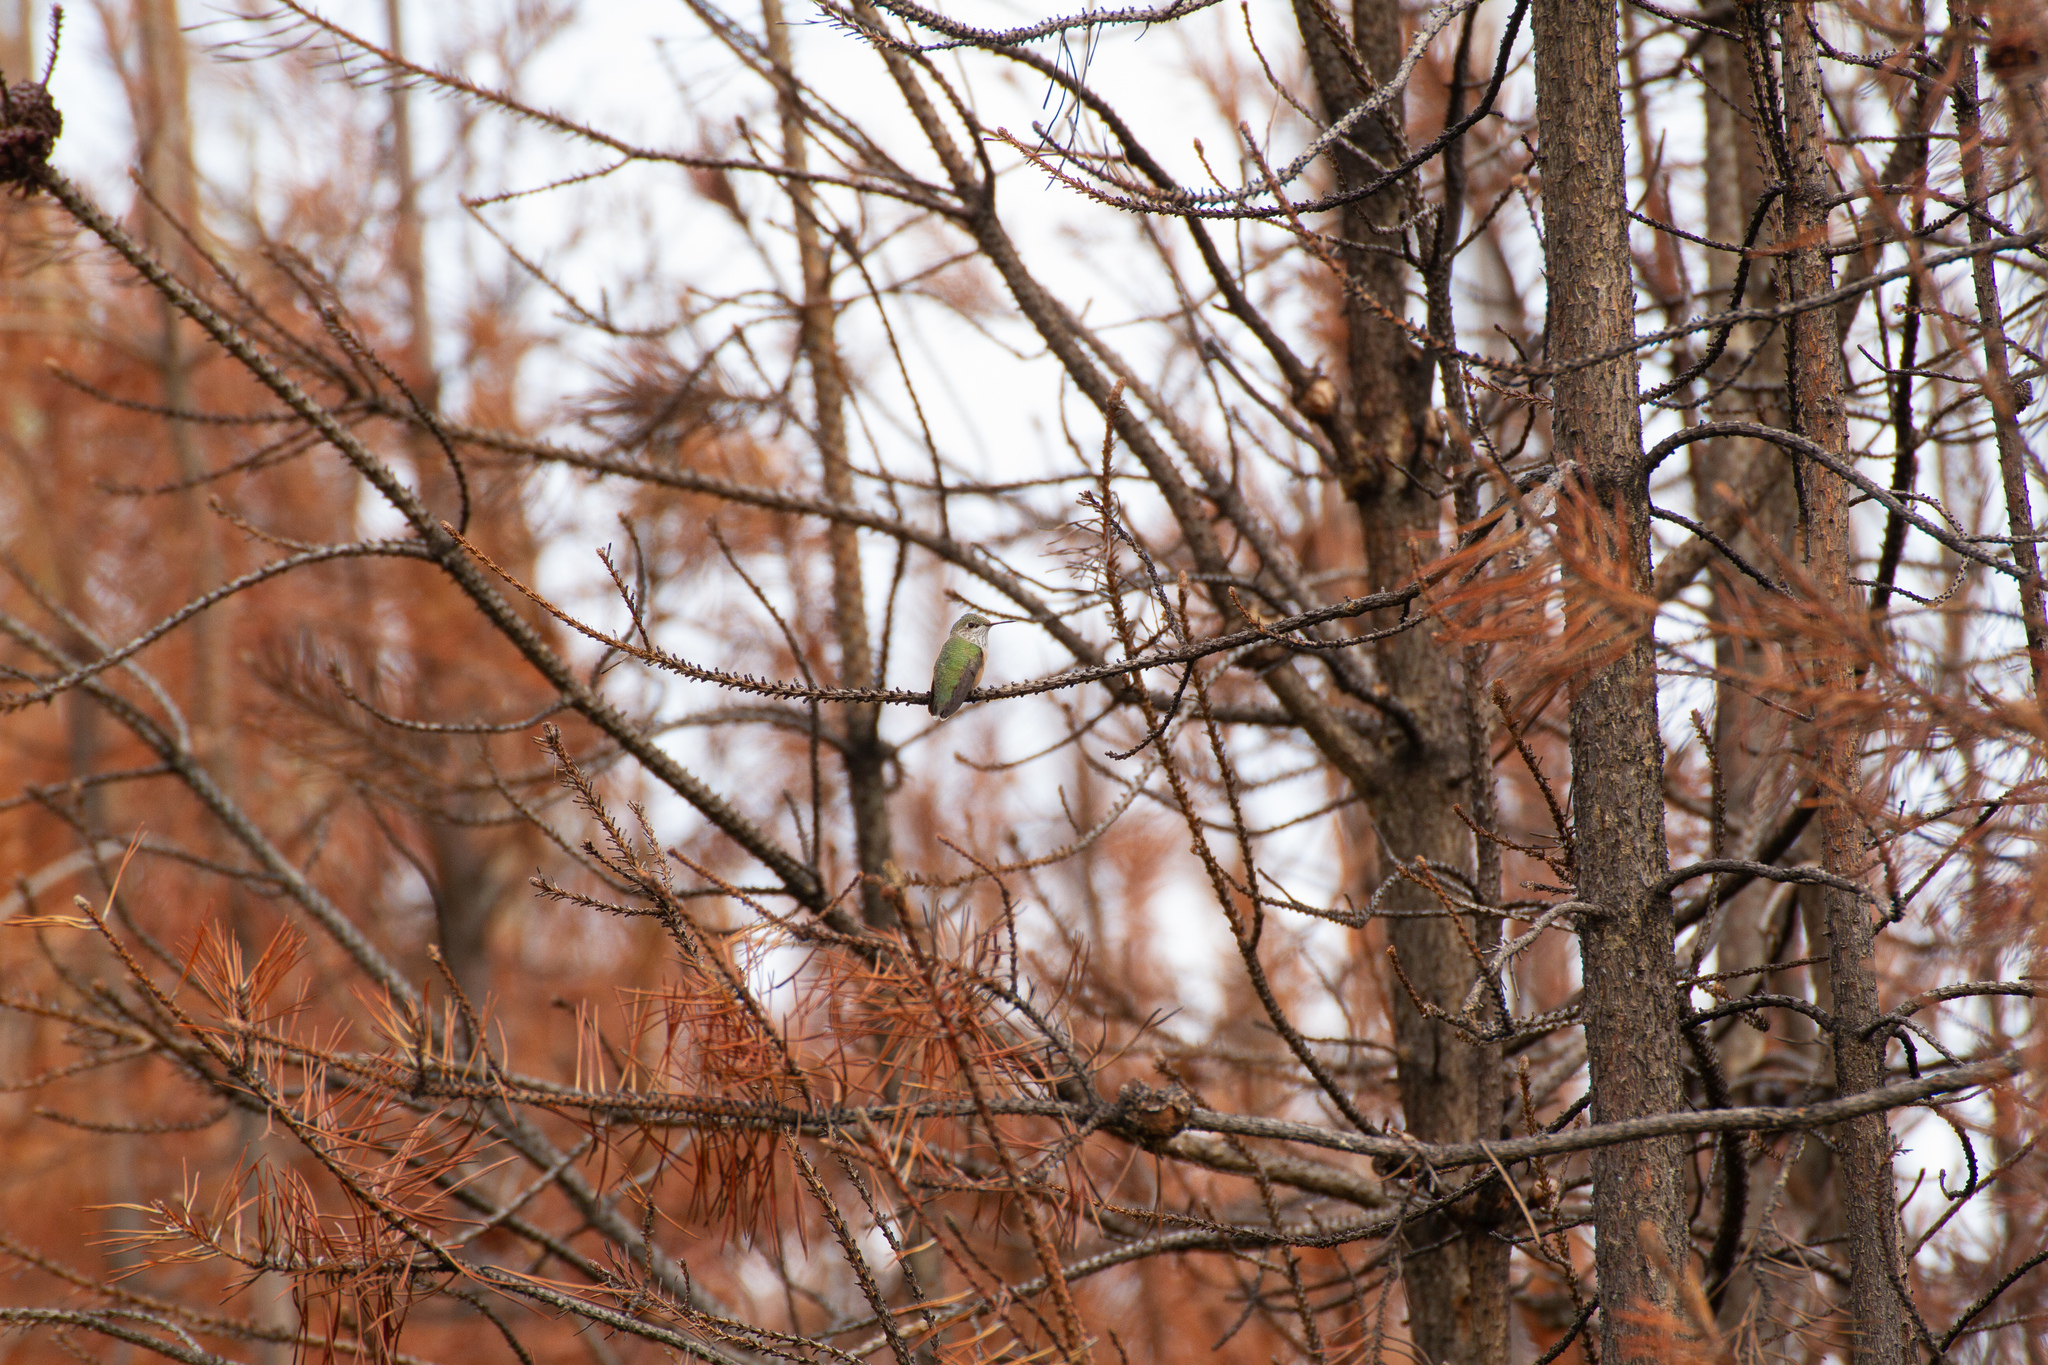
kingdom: Animalia
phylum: Chordata
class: Aves
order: Apodiformes
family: Trochilidae
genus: Selasphorus
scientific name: Selasphorus calliope
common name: Calliope hummingbird
